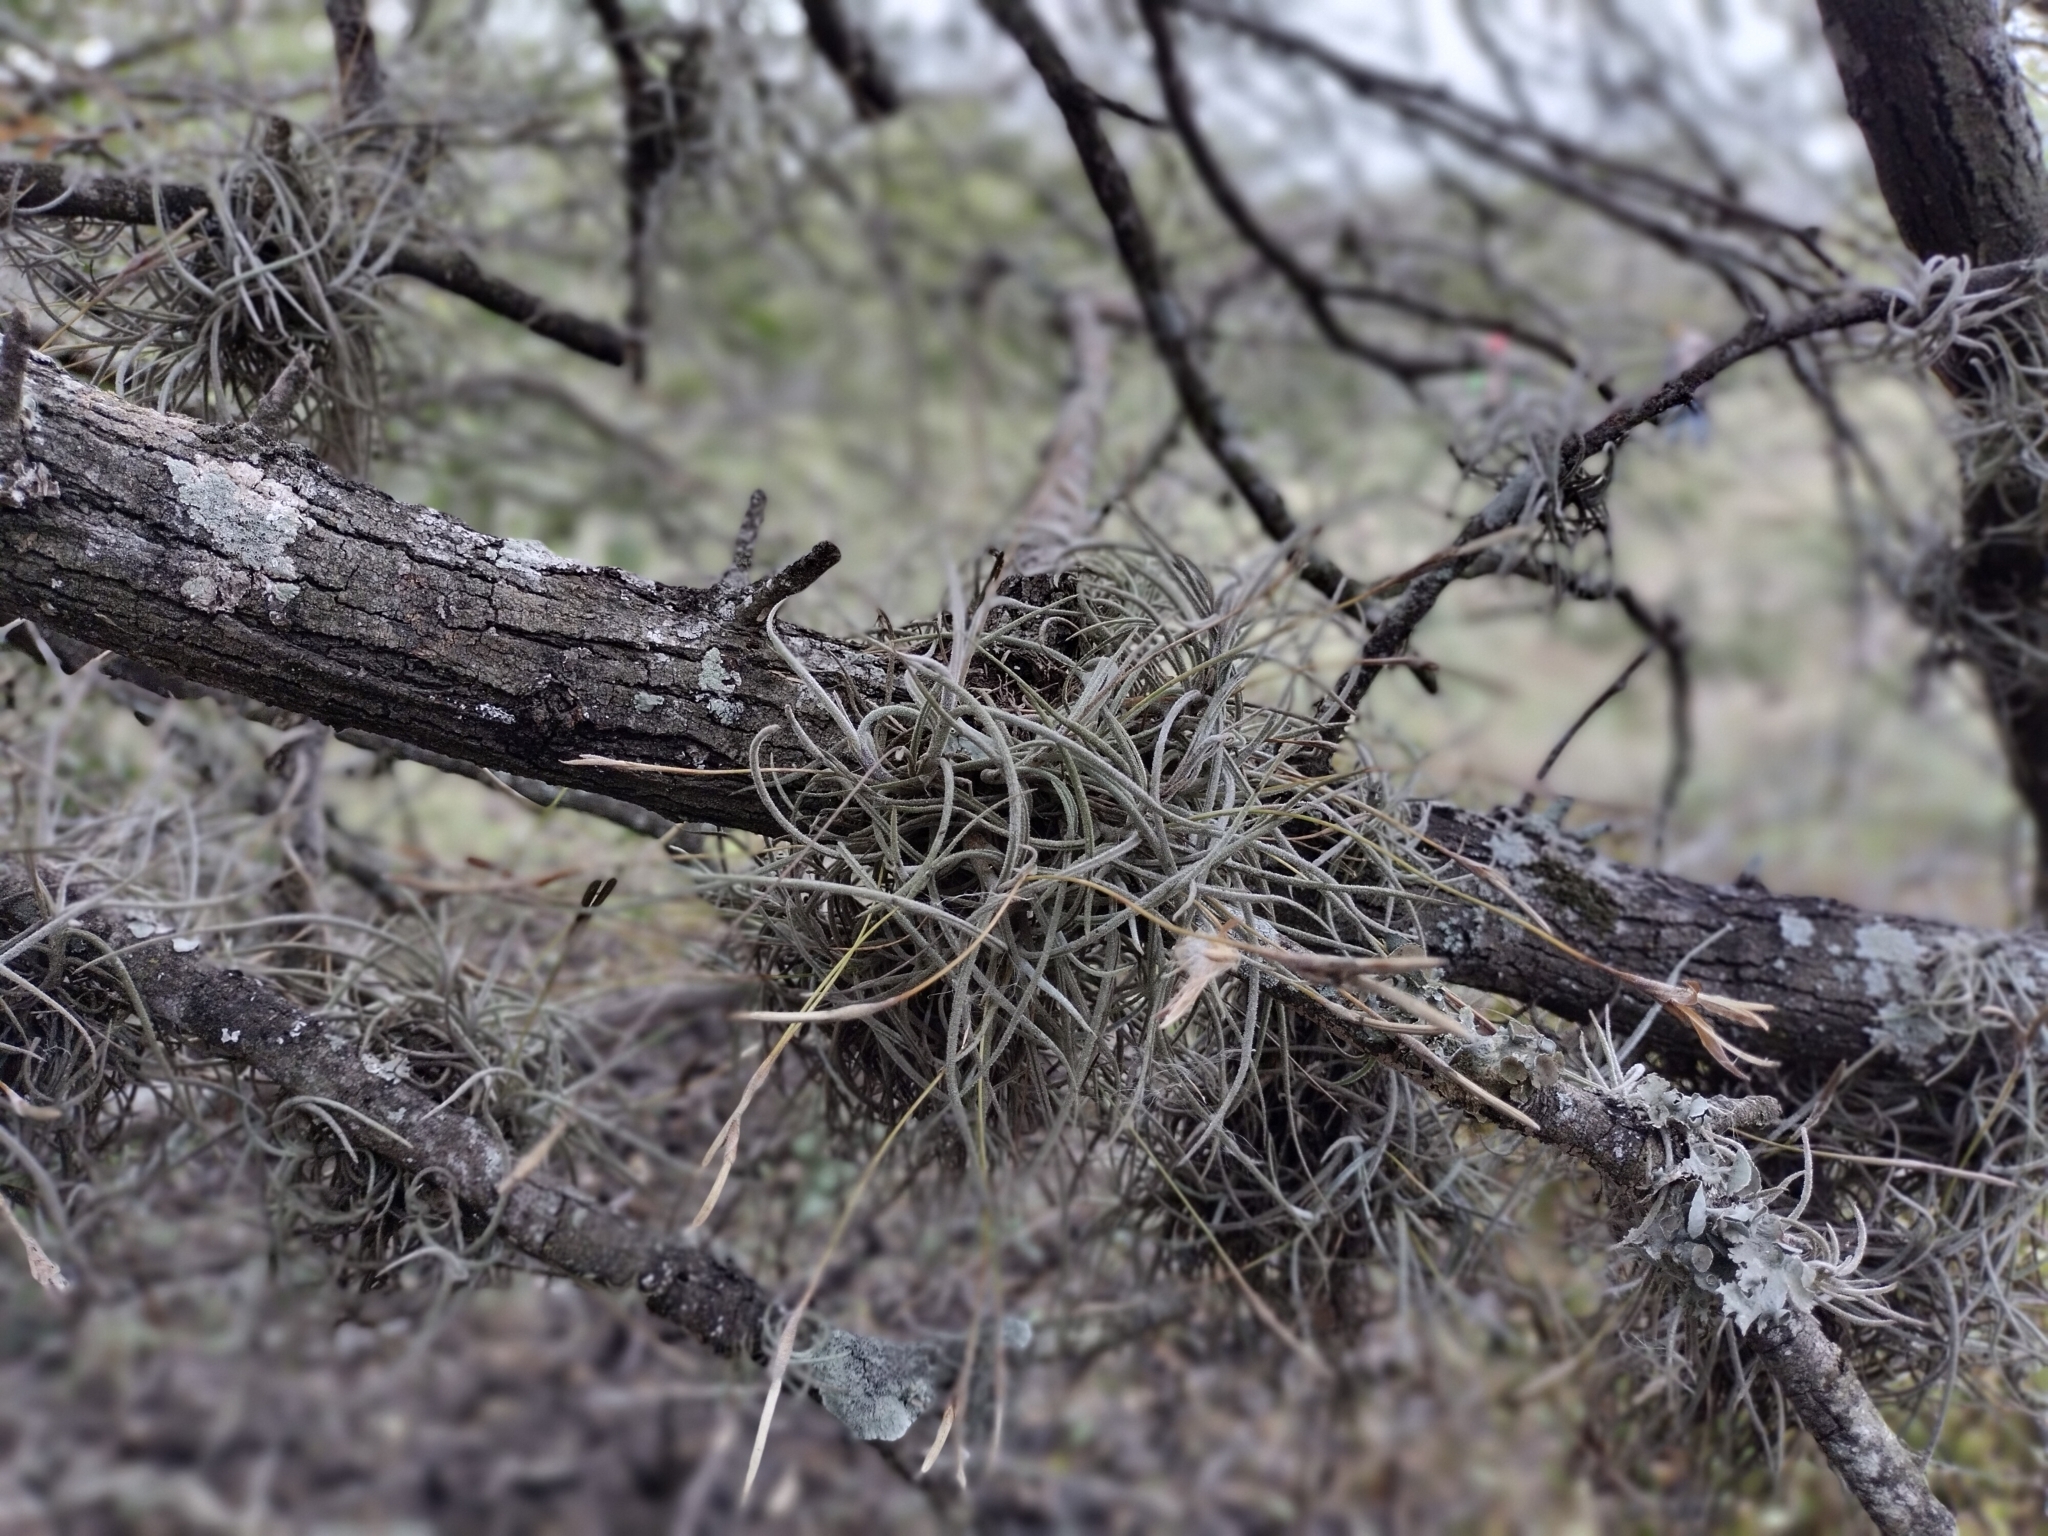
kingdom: Plantae
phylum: Tracheophyta
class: Liliopsida
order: Poales
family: Bromeliaceae
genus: Tillandsia
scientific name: Tillandsia recurvata
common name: Small ballmoss
